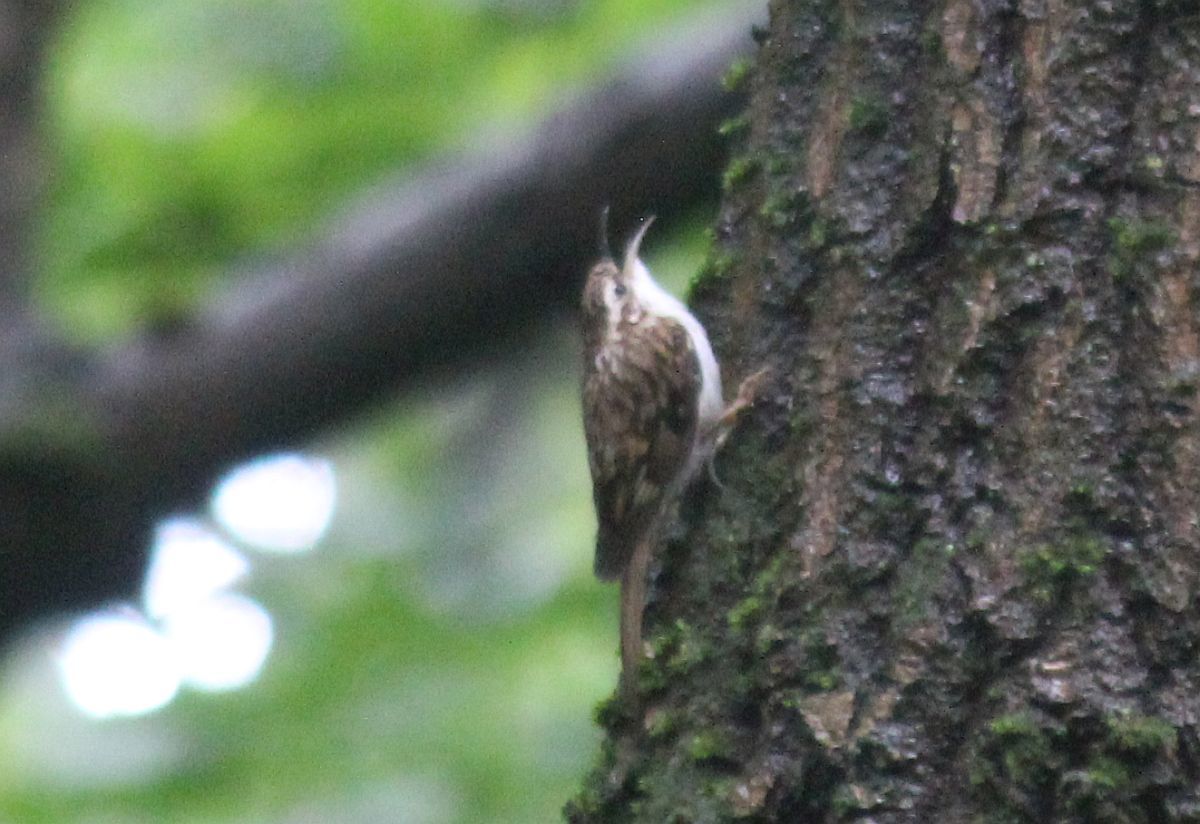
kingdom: Animalia
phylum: Chordata
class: Aves
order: Passeriformes
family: Certhiidae
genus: Certhia
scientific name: Certhia familiaris
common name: Eurasian treecreeper
